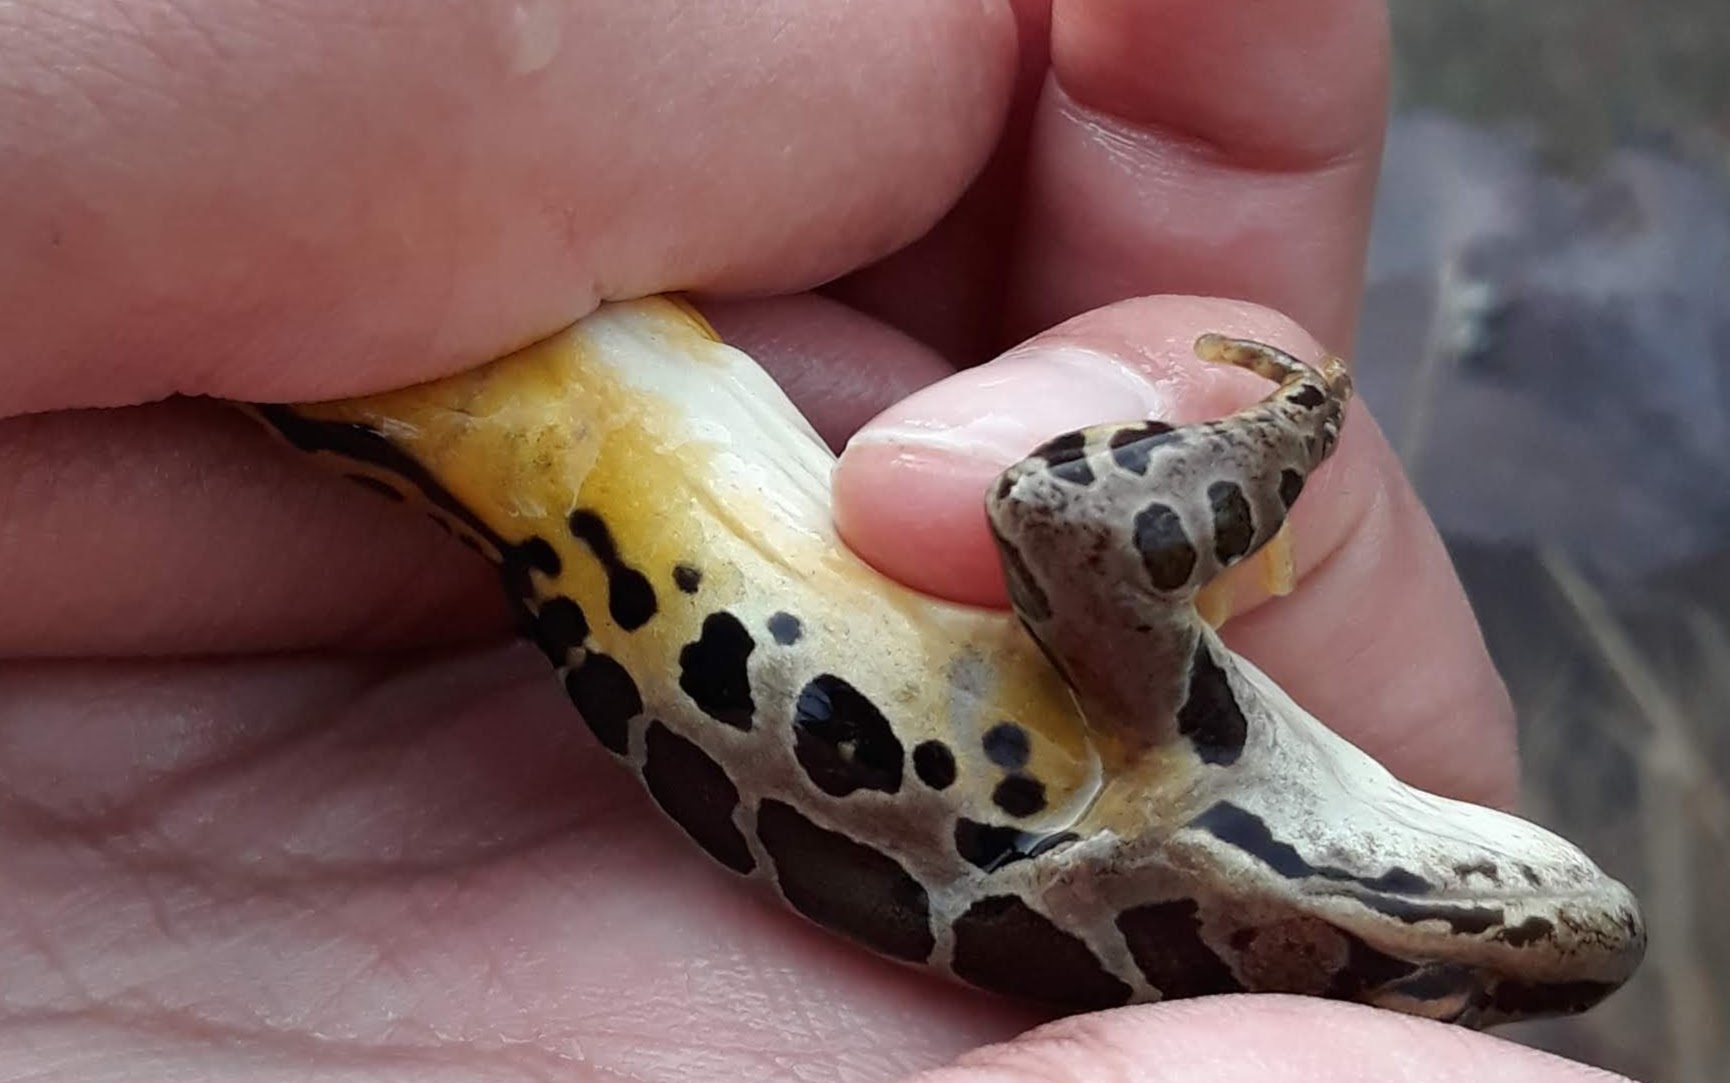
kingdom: Animalia
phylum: Chordata
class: Amphibia
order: Anura
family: Ranidae
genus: Lithobates
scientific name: Lithobates palustris
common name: Pickerel frog
